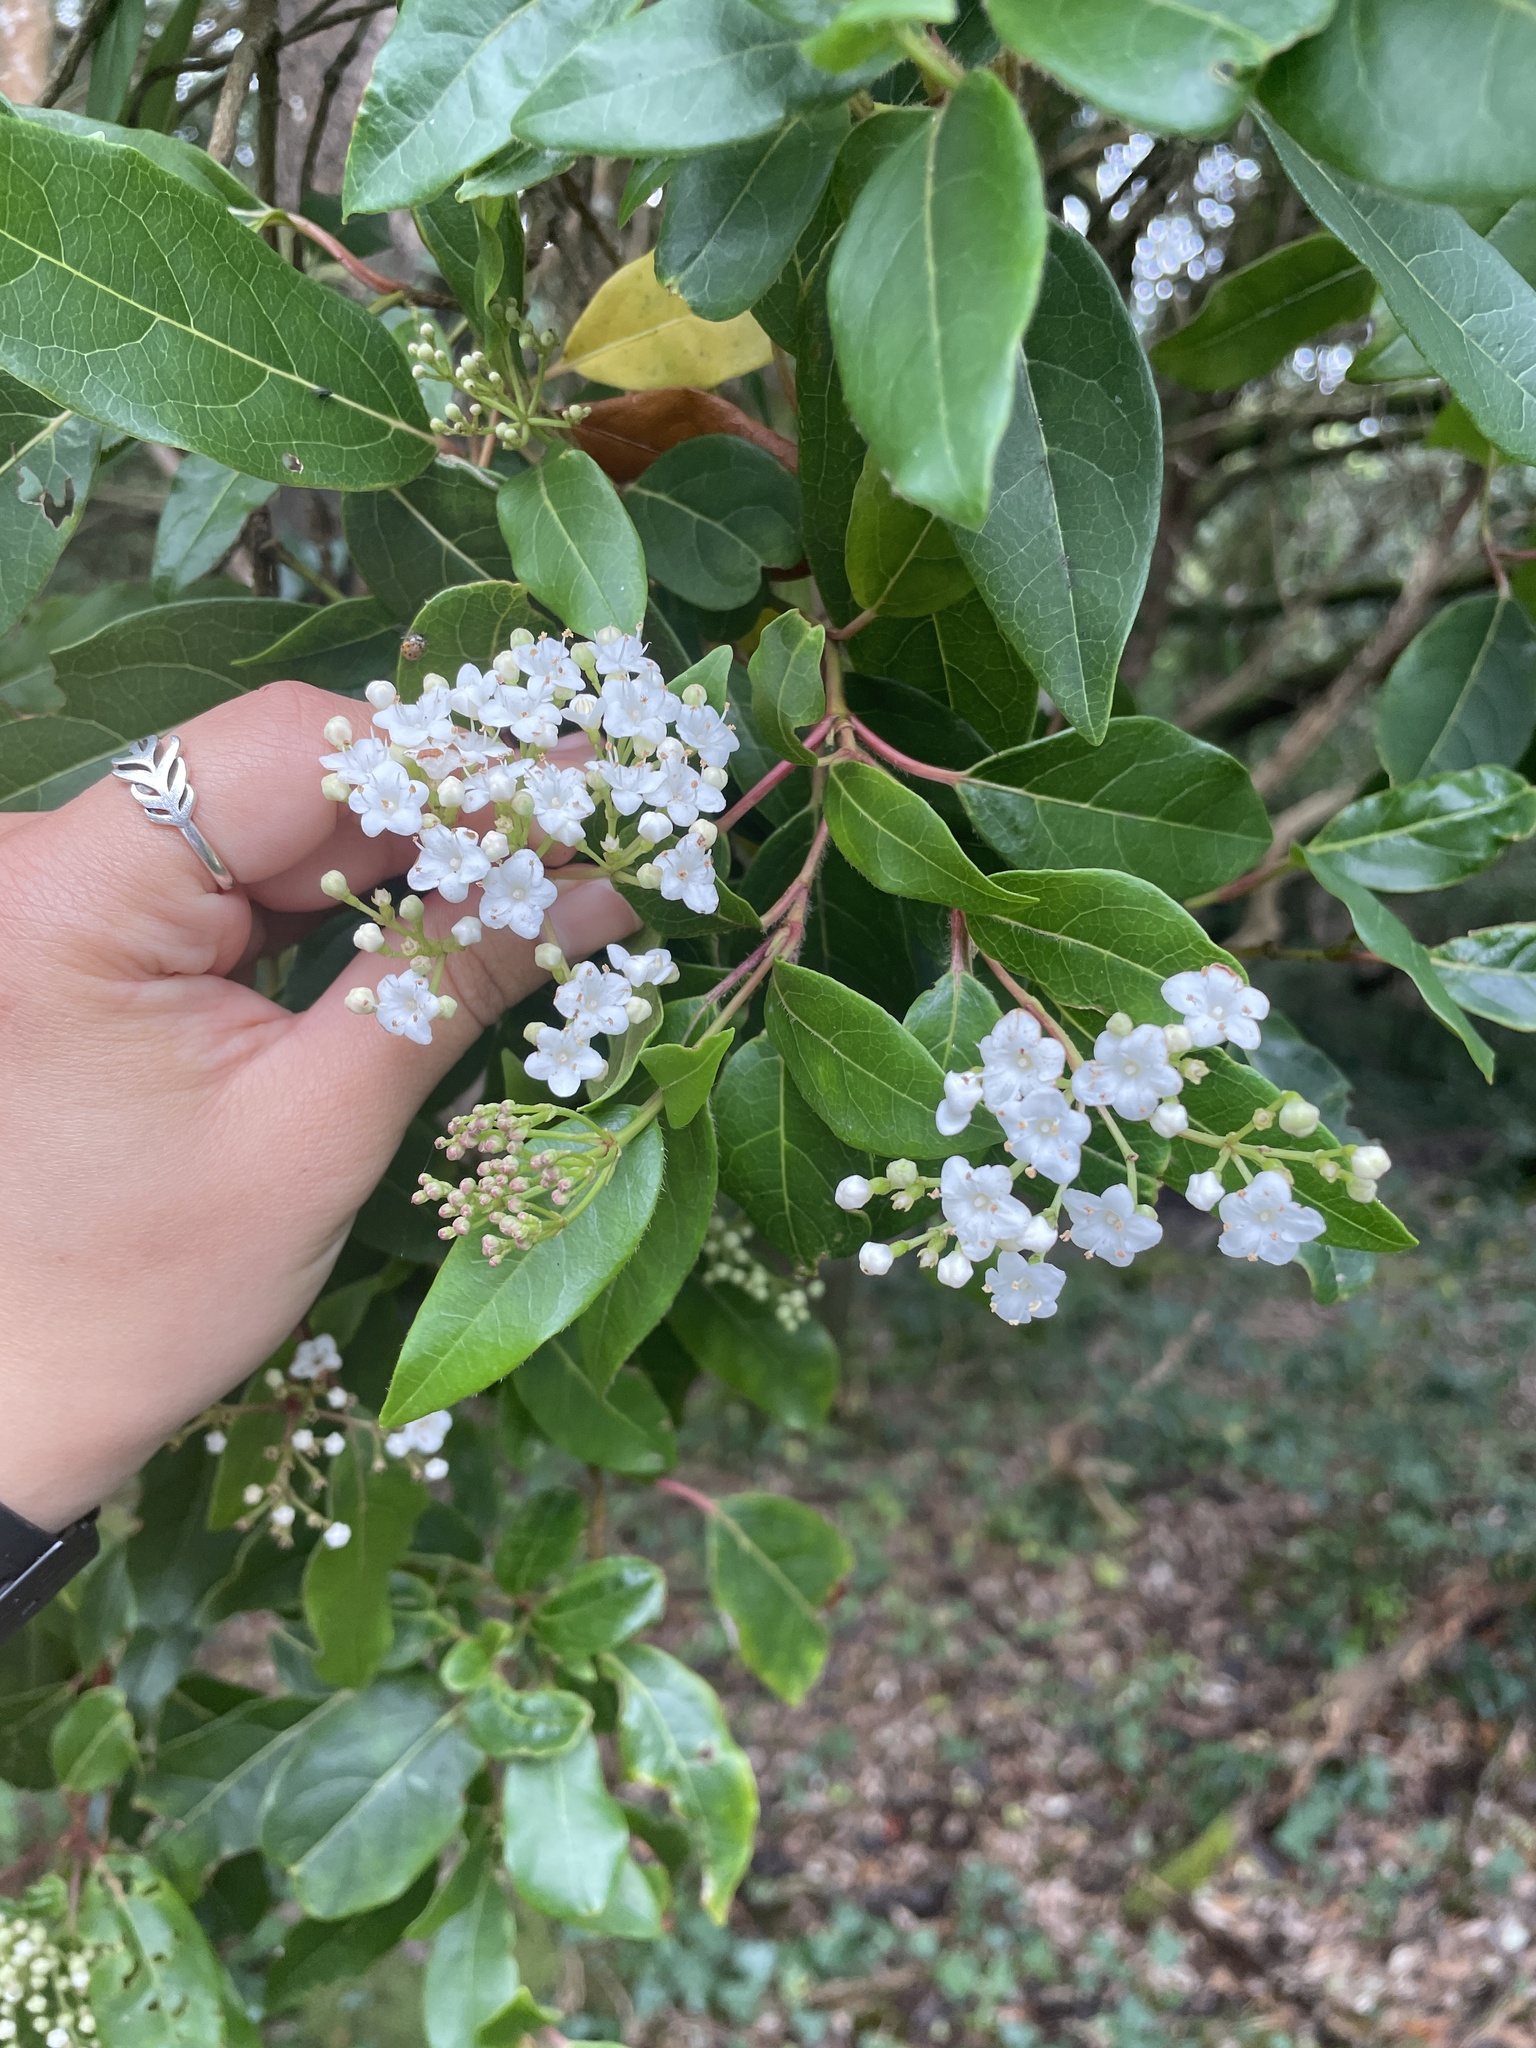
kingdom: Plantae
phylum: Tracheophyta
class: Magnoliopsida
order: Dipsacales
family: Viburnaceae
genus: Viburnum
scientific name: Viburnum tinus
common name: Laurustinus
